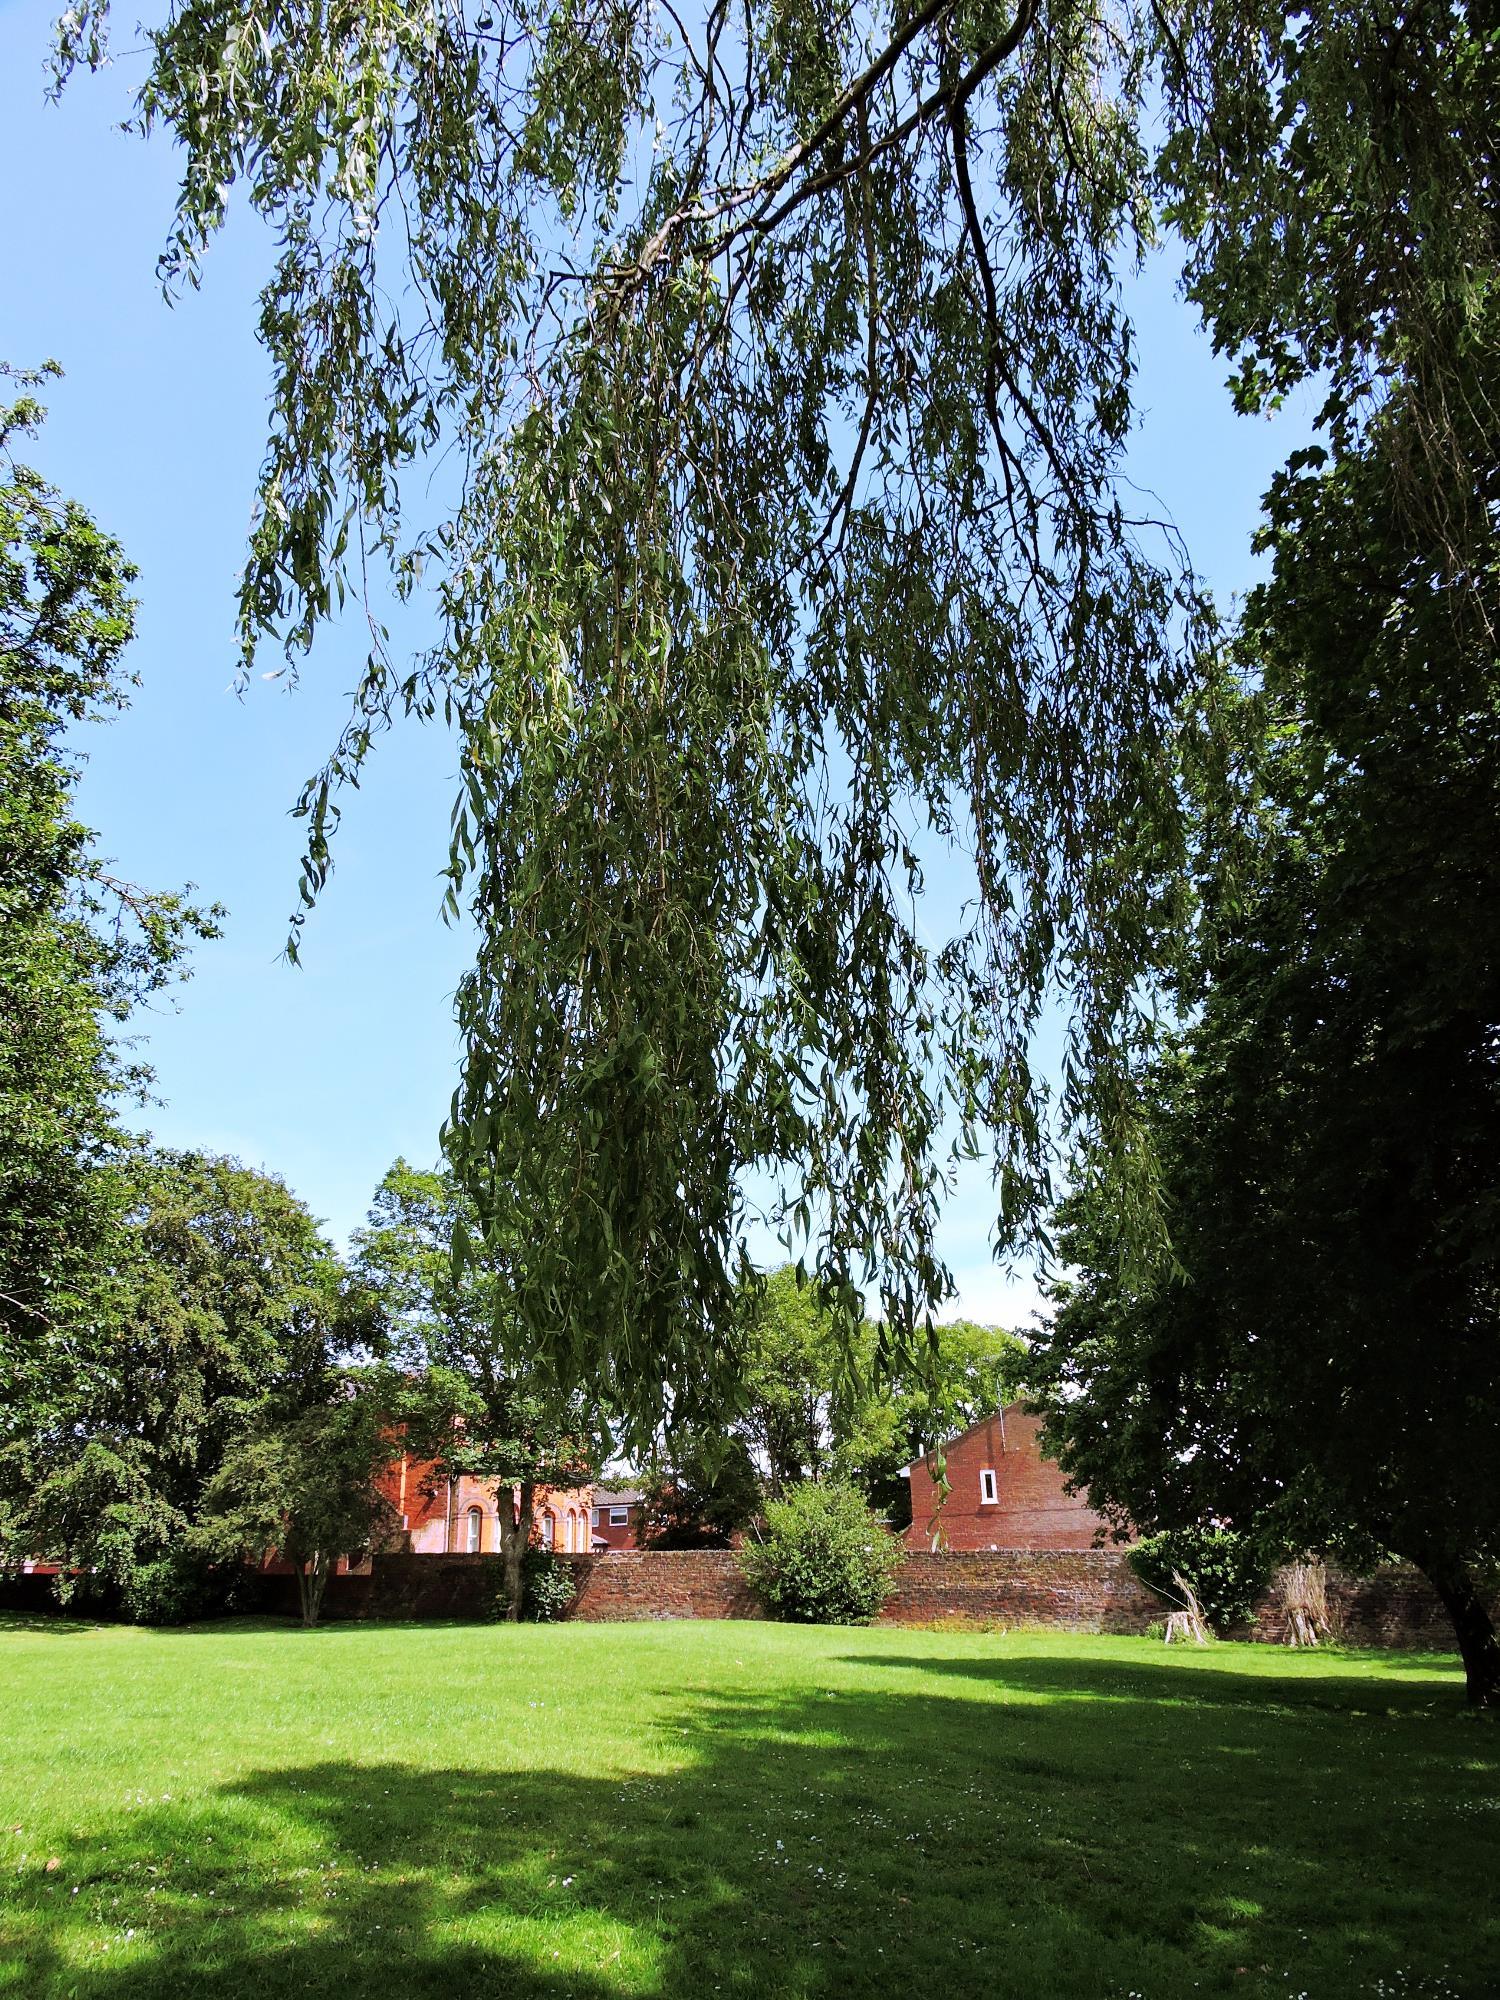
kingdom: Plantae
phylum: Tracheophyta
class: Magnoliopsida
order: Malpighiales
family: Salicaceae
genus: Salix
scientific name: Salix pendulina
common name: Wisconsin weeping willow
